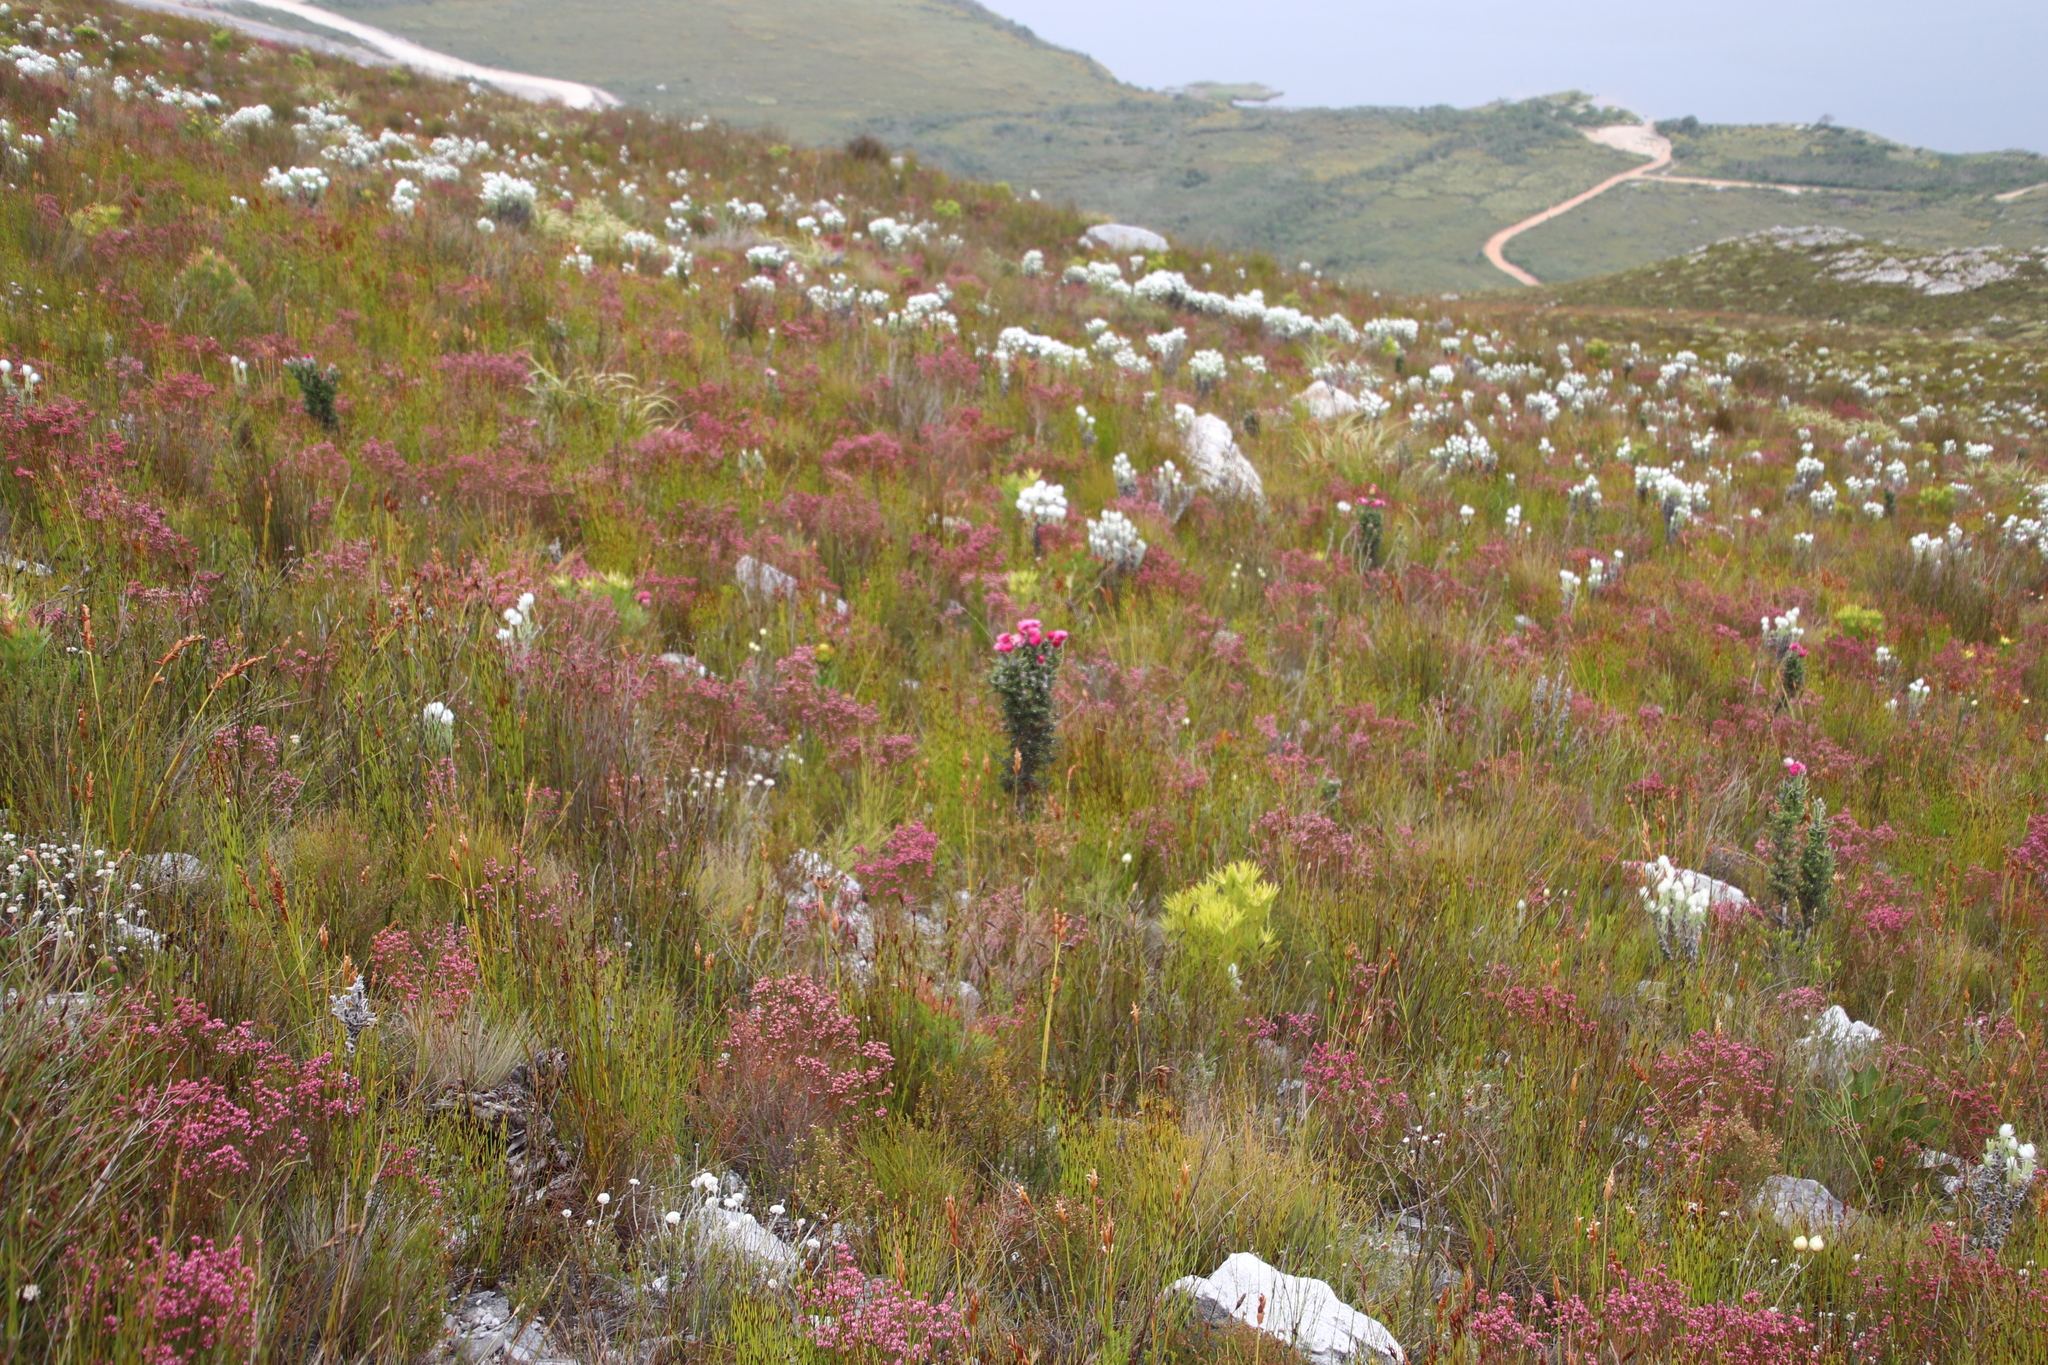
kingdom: Plantae
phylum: Tracheophyta
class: Magnoliopsida
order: Asterales
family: Asteraceae
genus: Phaenocoma
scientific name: Phaenocoma prolifera
